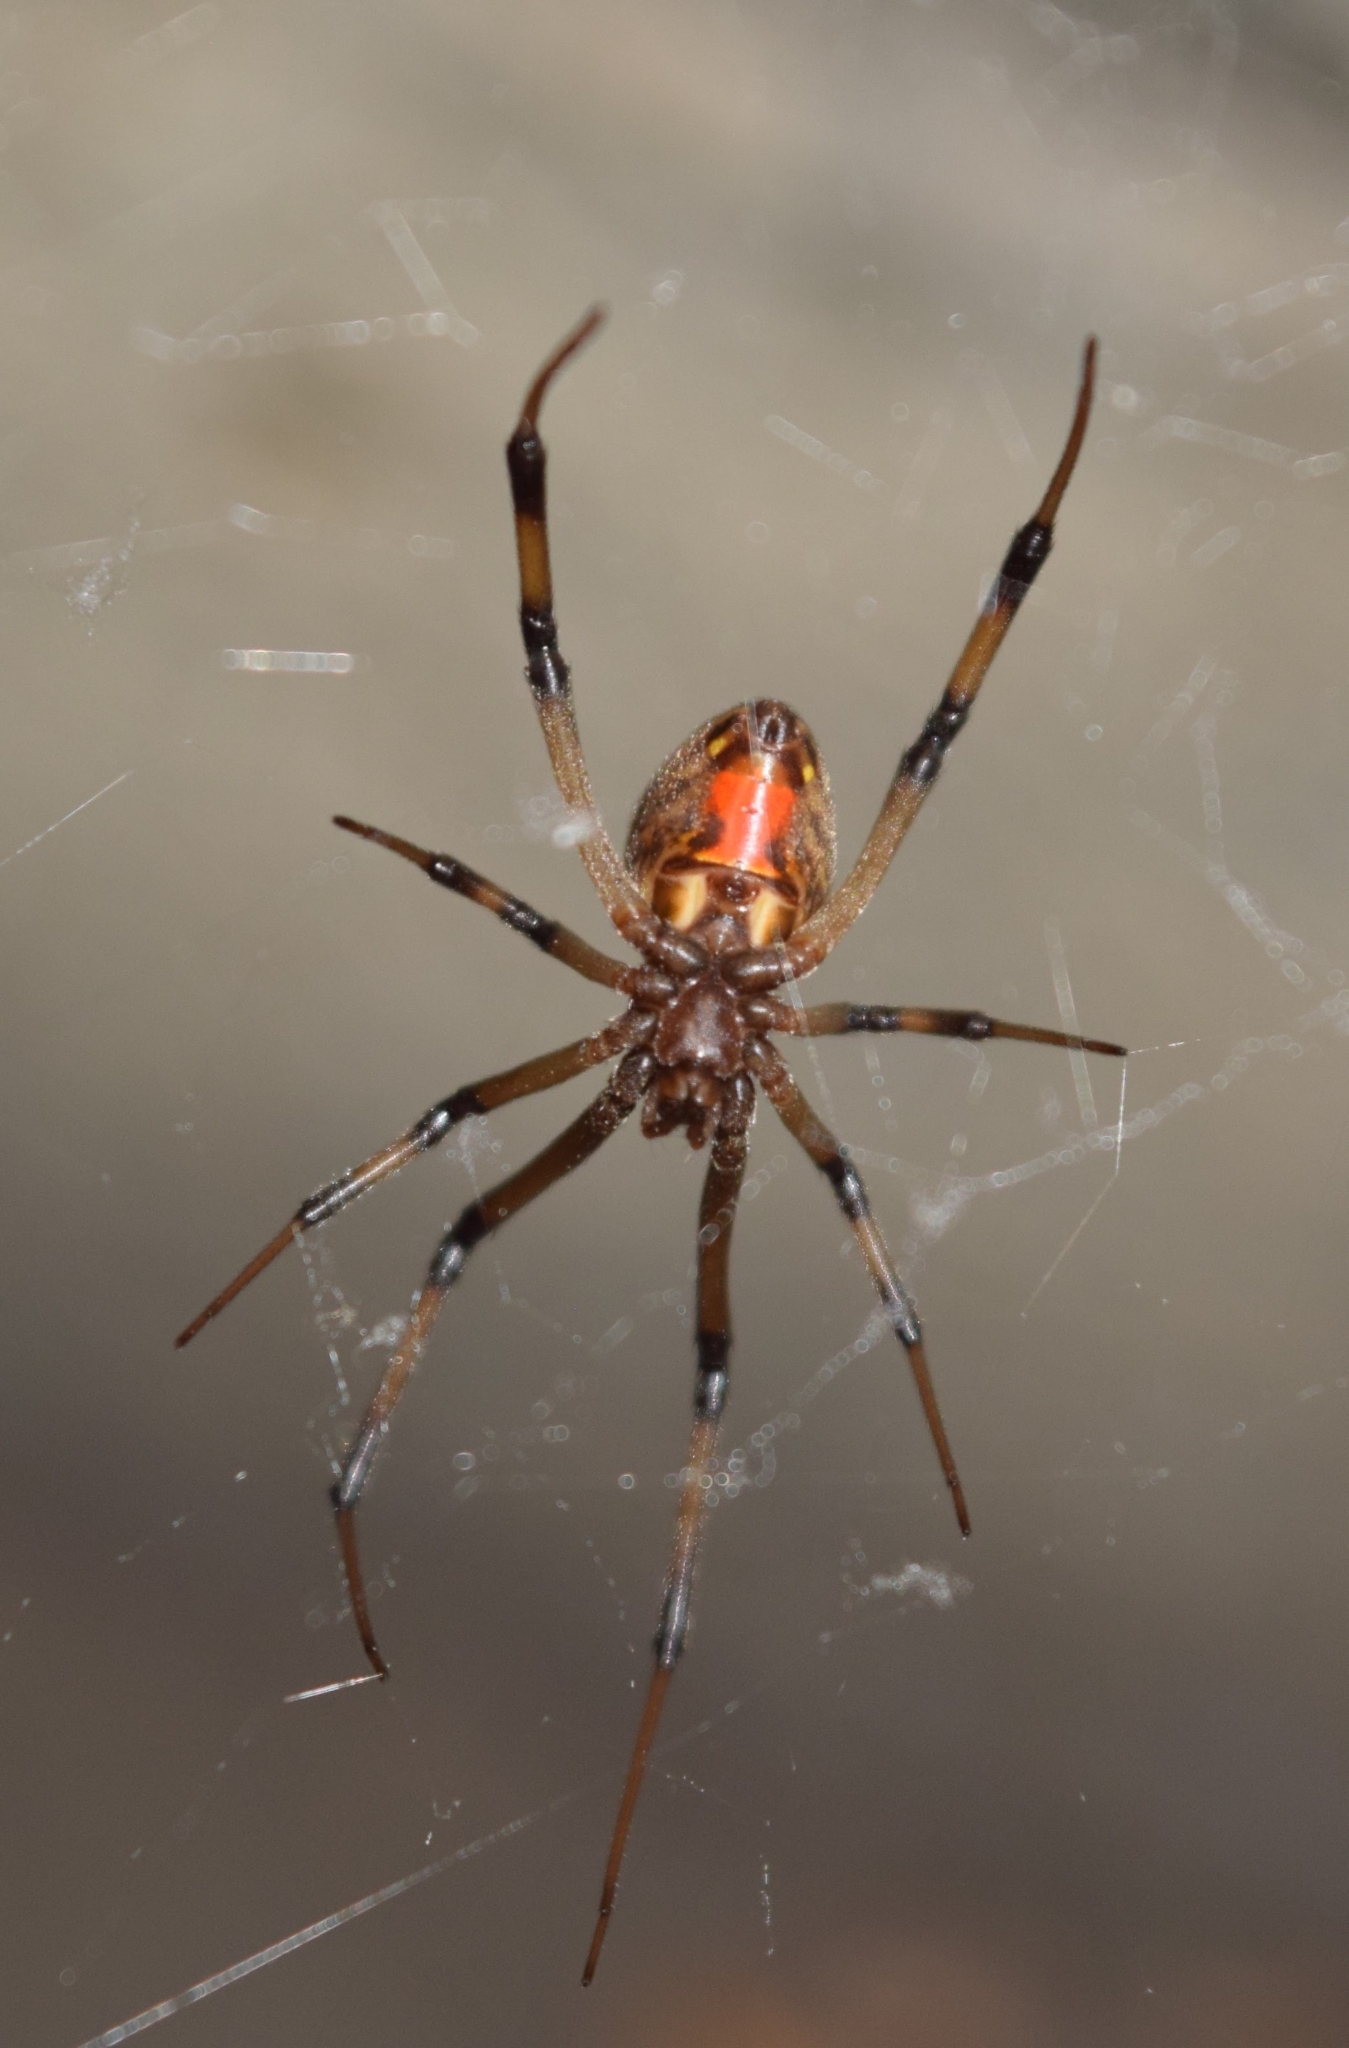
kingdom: Animalia
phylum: Arthropoda
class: Arachnida
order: Araneae
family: Theridiidae
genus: Latrodectus
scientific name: Latrodectus geometricus
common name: Brown widow spider
